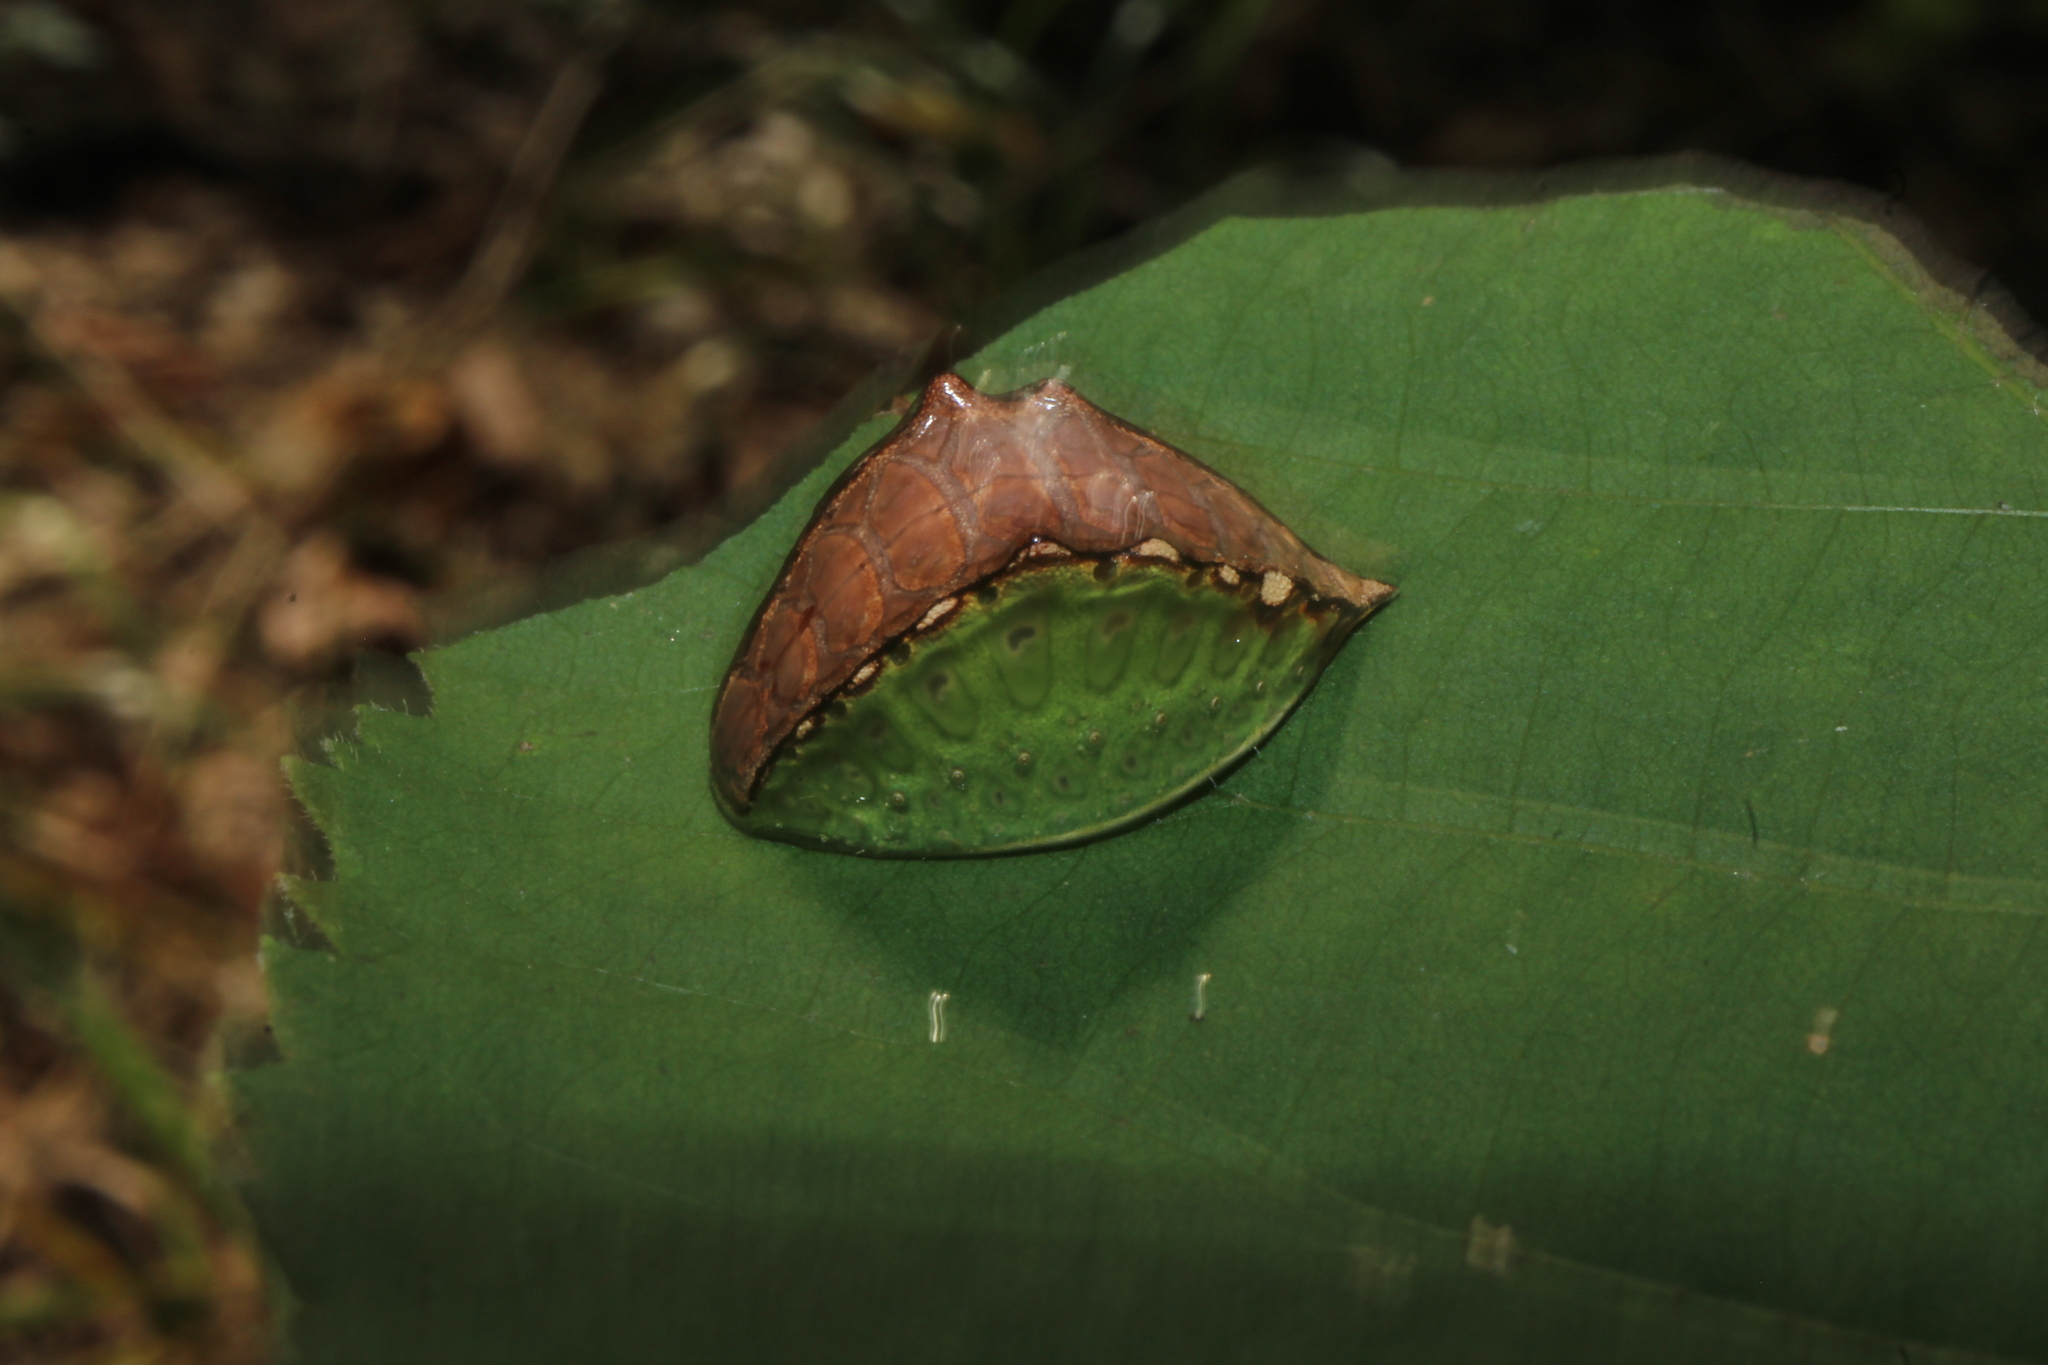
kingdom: Animalia
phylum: Arthropoda
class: Insecta
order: Lepidoptera
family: Limacodidae
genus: Prolimacodes
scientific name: Prolimacodes badia
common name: Skiff moth
